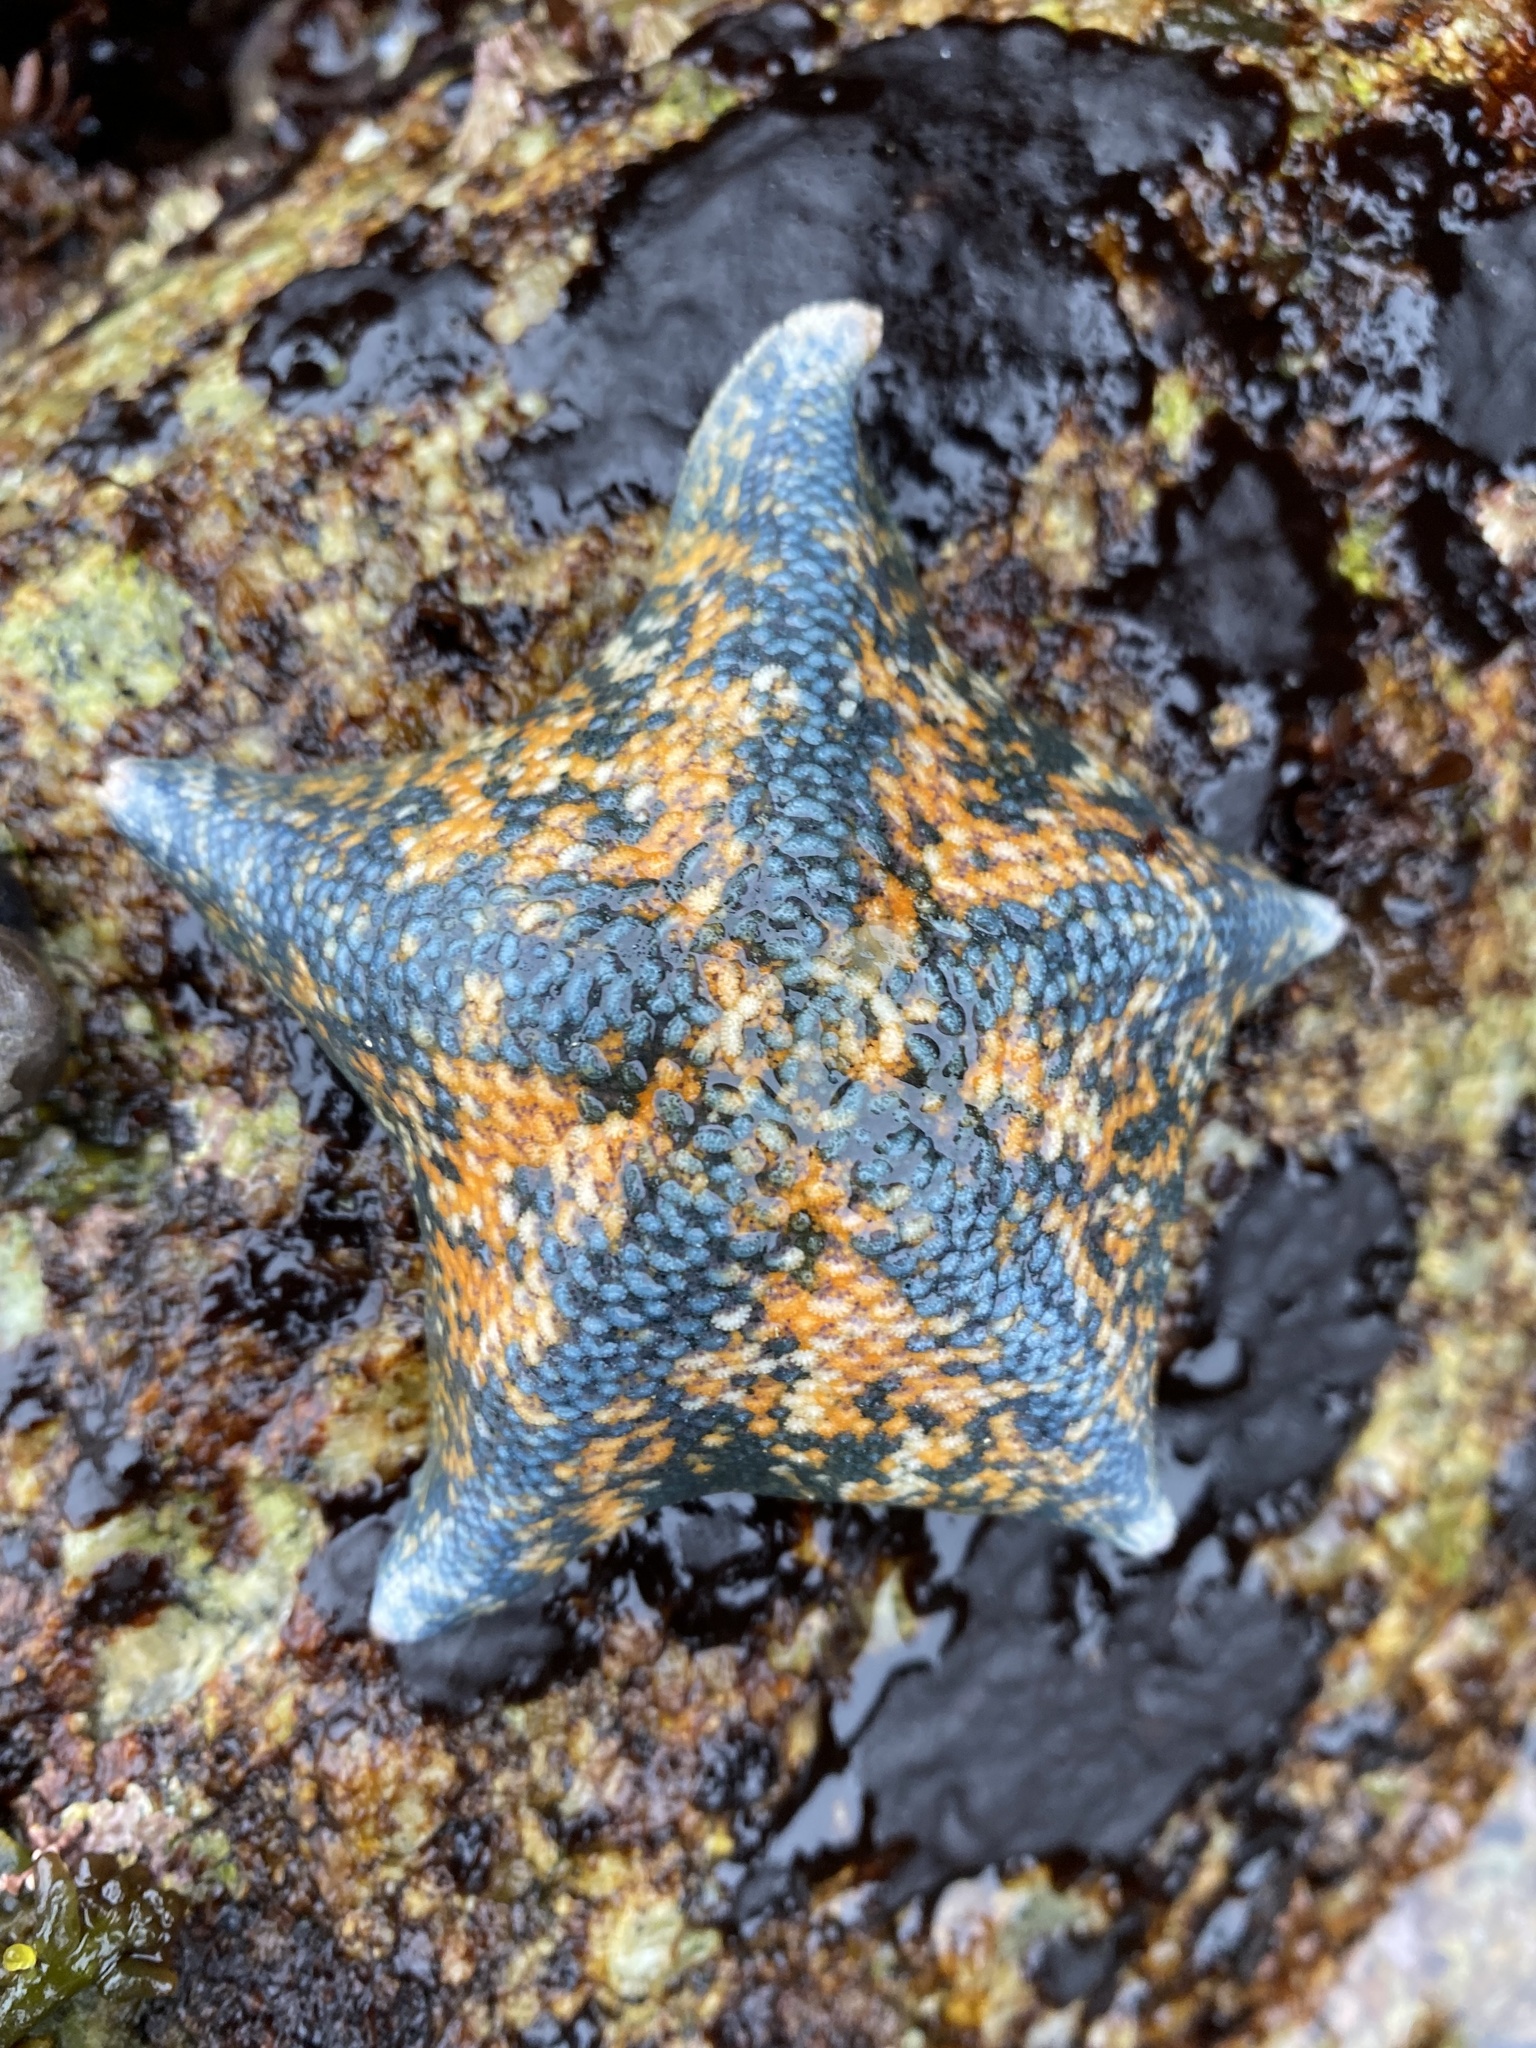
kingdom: Animalia
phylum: Echinodermata
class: Asteroidea
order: Valvatida
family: Asterinidae
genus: Patiria
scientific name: Patiria miniata
